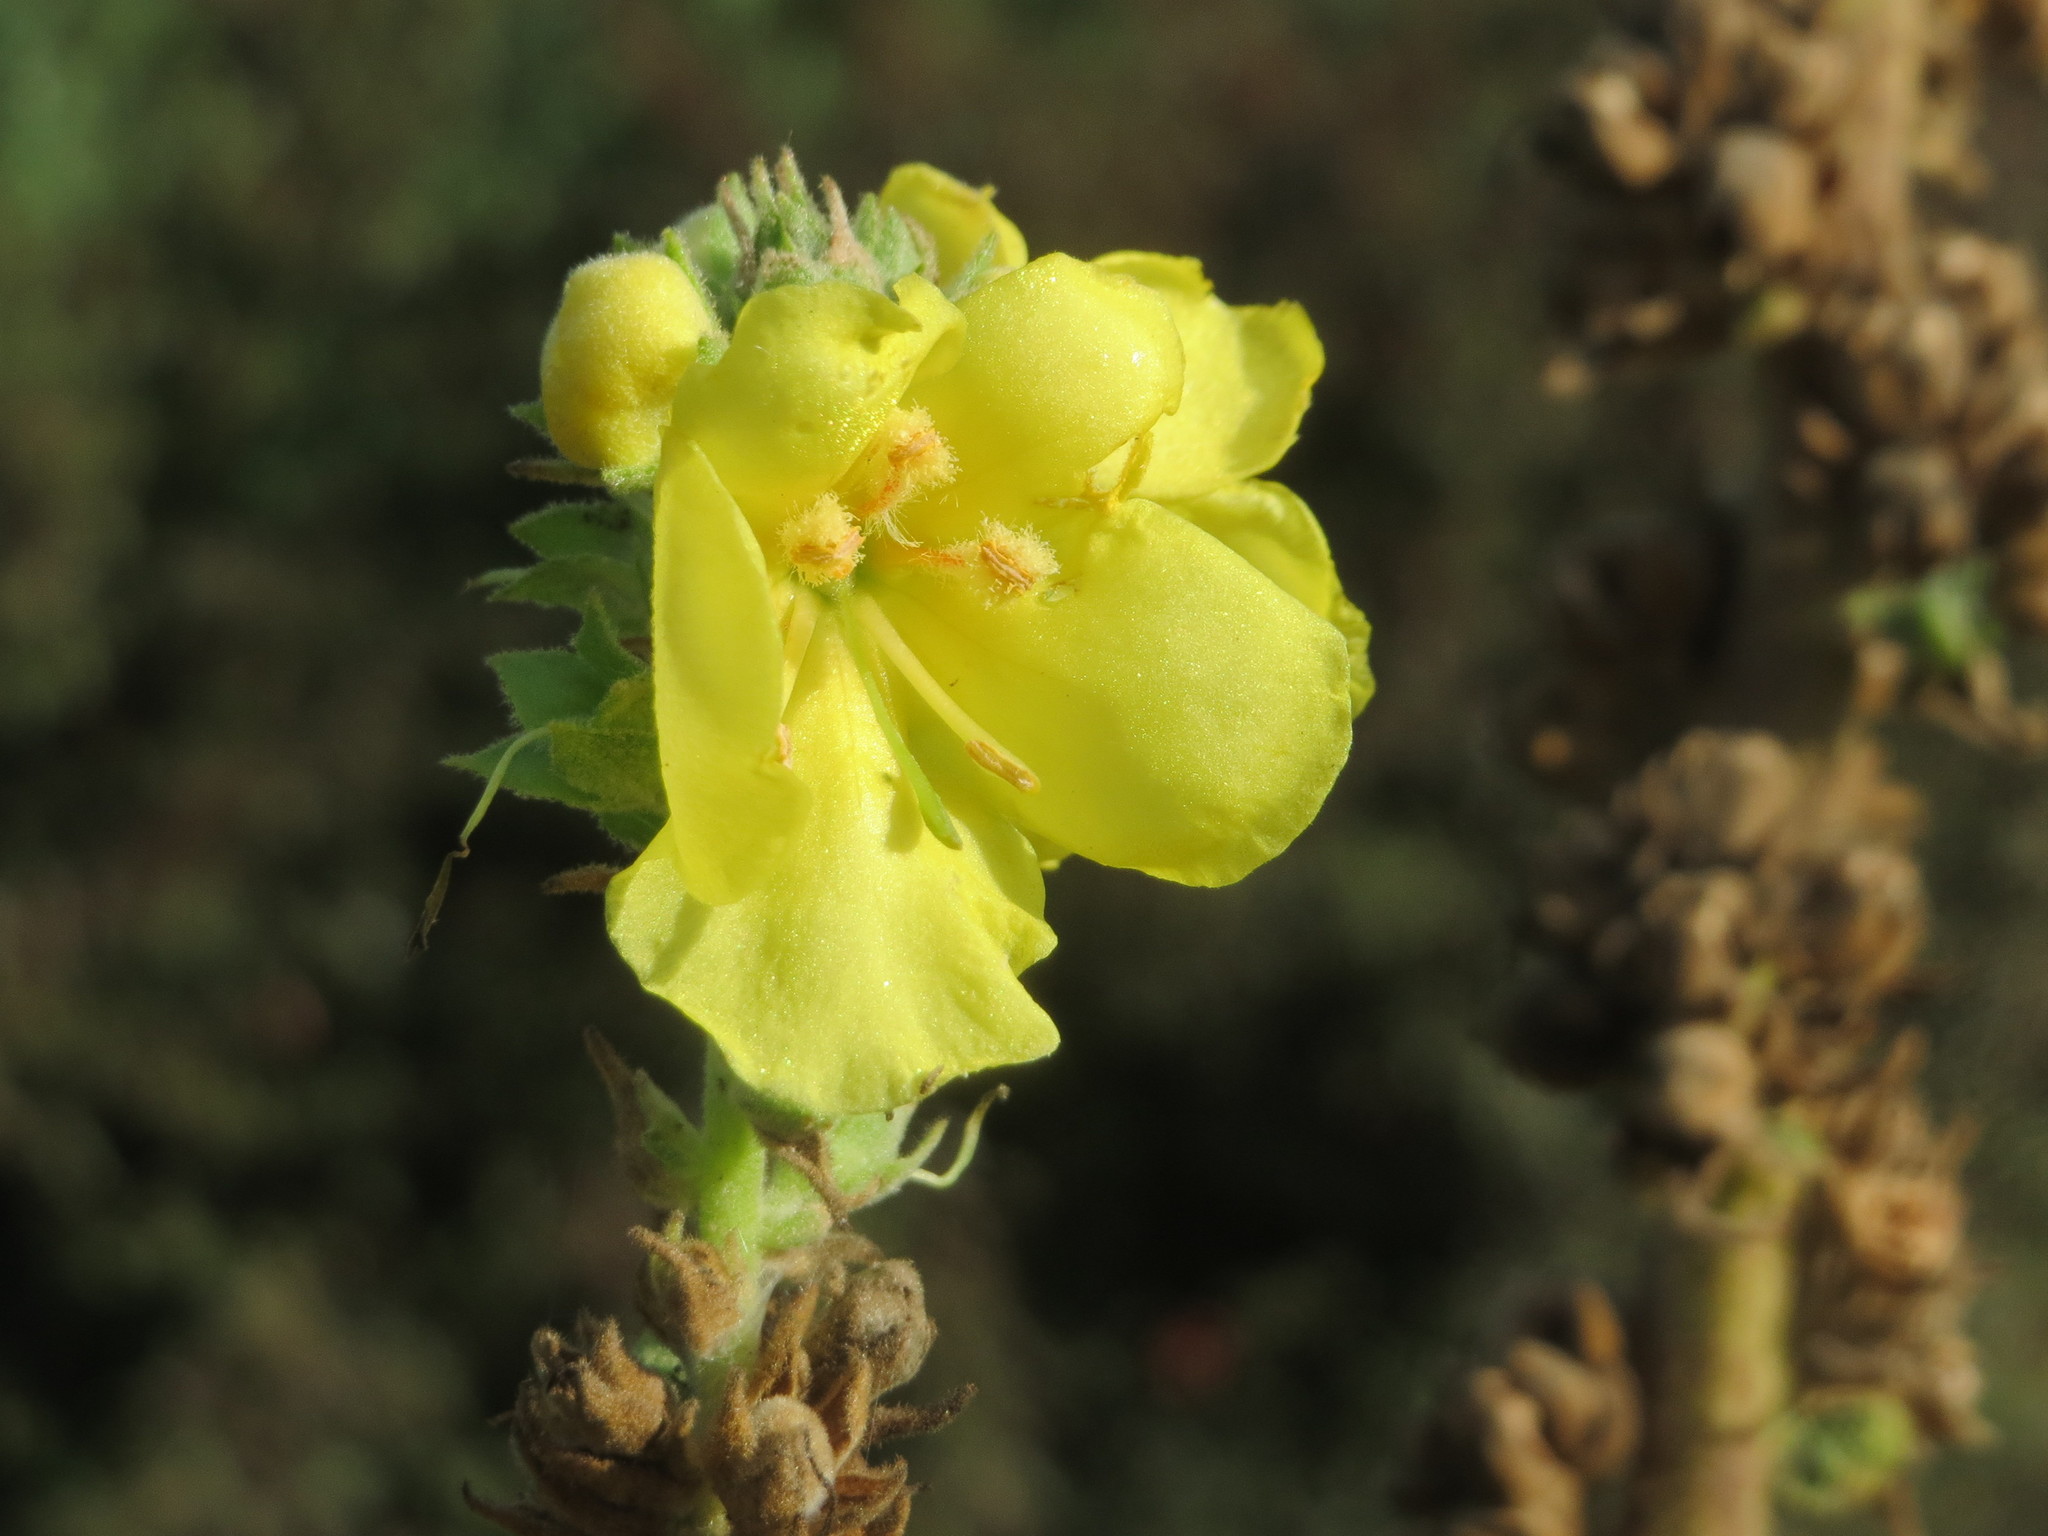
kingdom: Plantae
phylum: Tracheophyta
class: Magnoliopsida
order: Lamiales
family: Scrophulariaceae
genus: Verbascum
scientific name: Verbascum thapsus
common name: Common mullein
